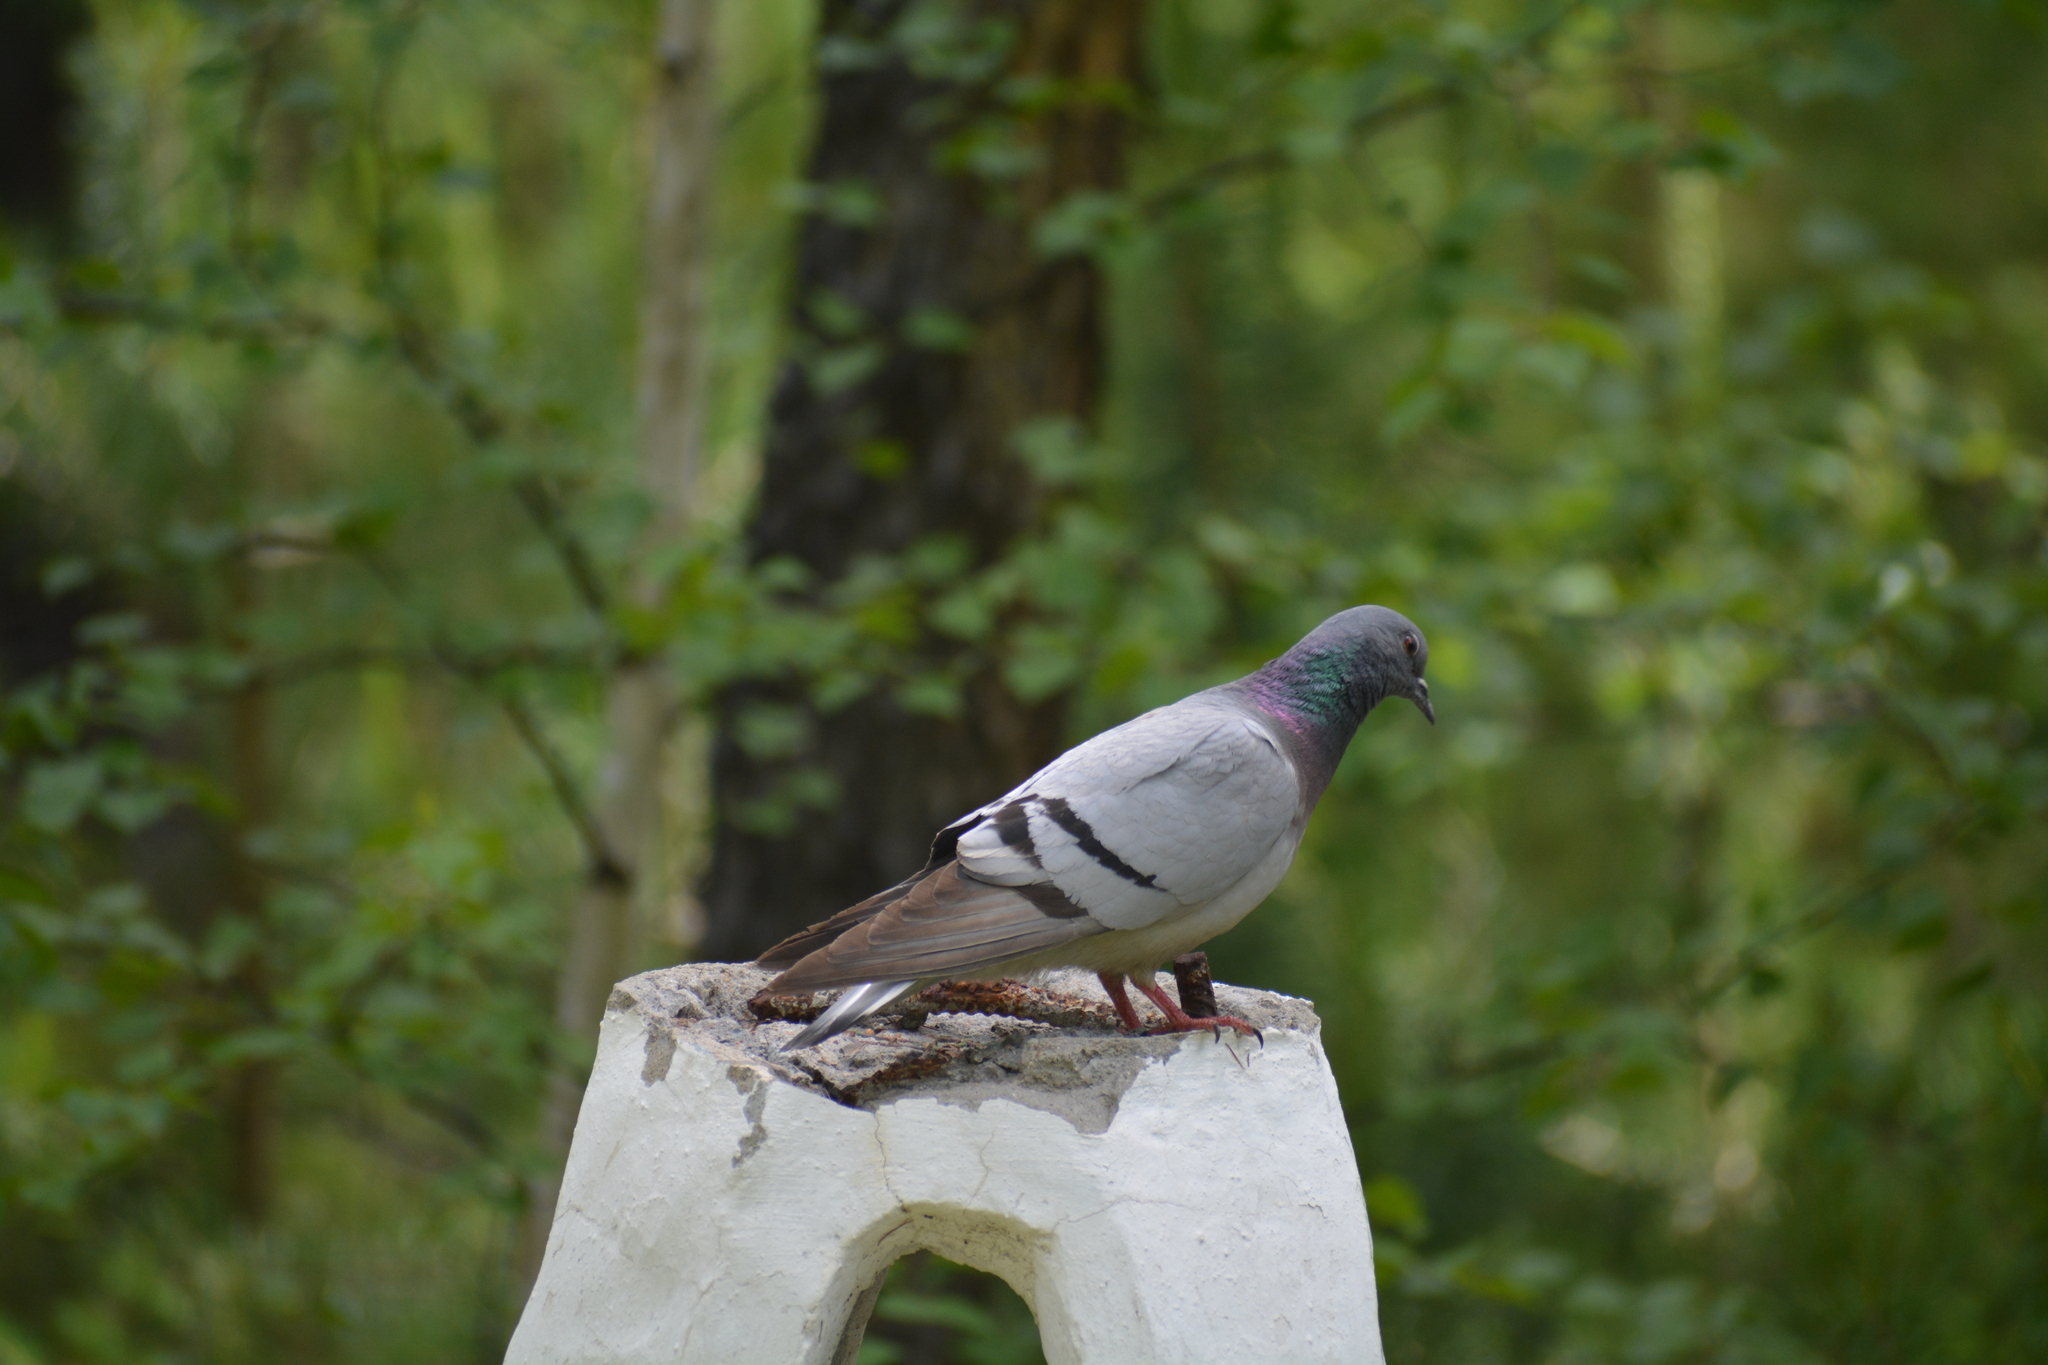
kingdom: Animalia
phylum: Chordata
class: Aves
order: Columbiformes
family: Columbidae
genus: Columba
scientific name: Columba rupestris
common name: Hill pigeon
